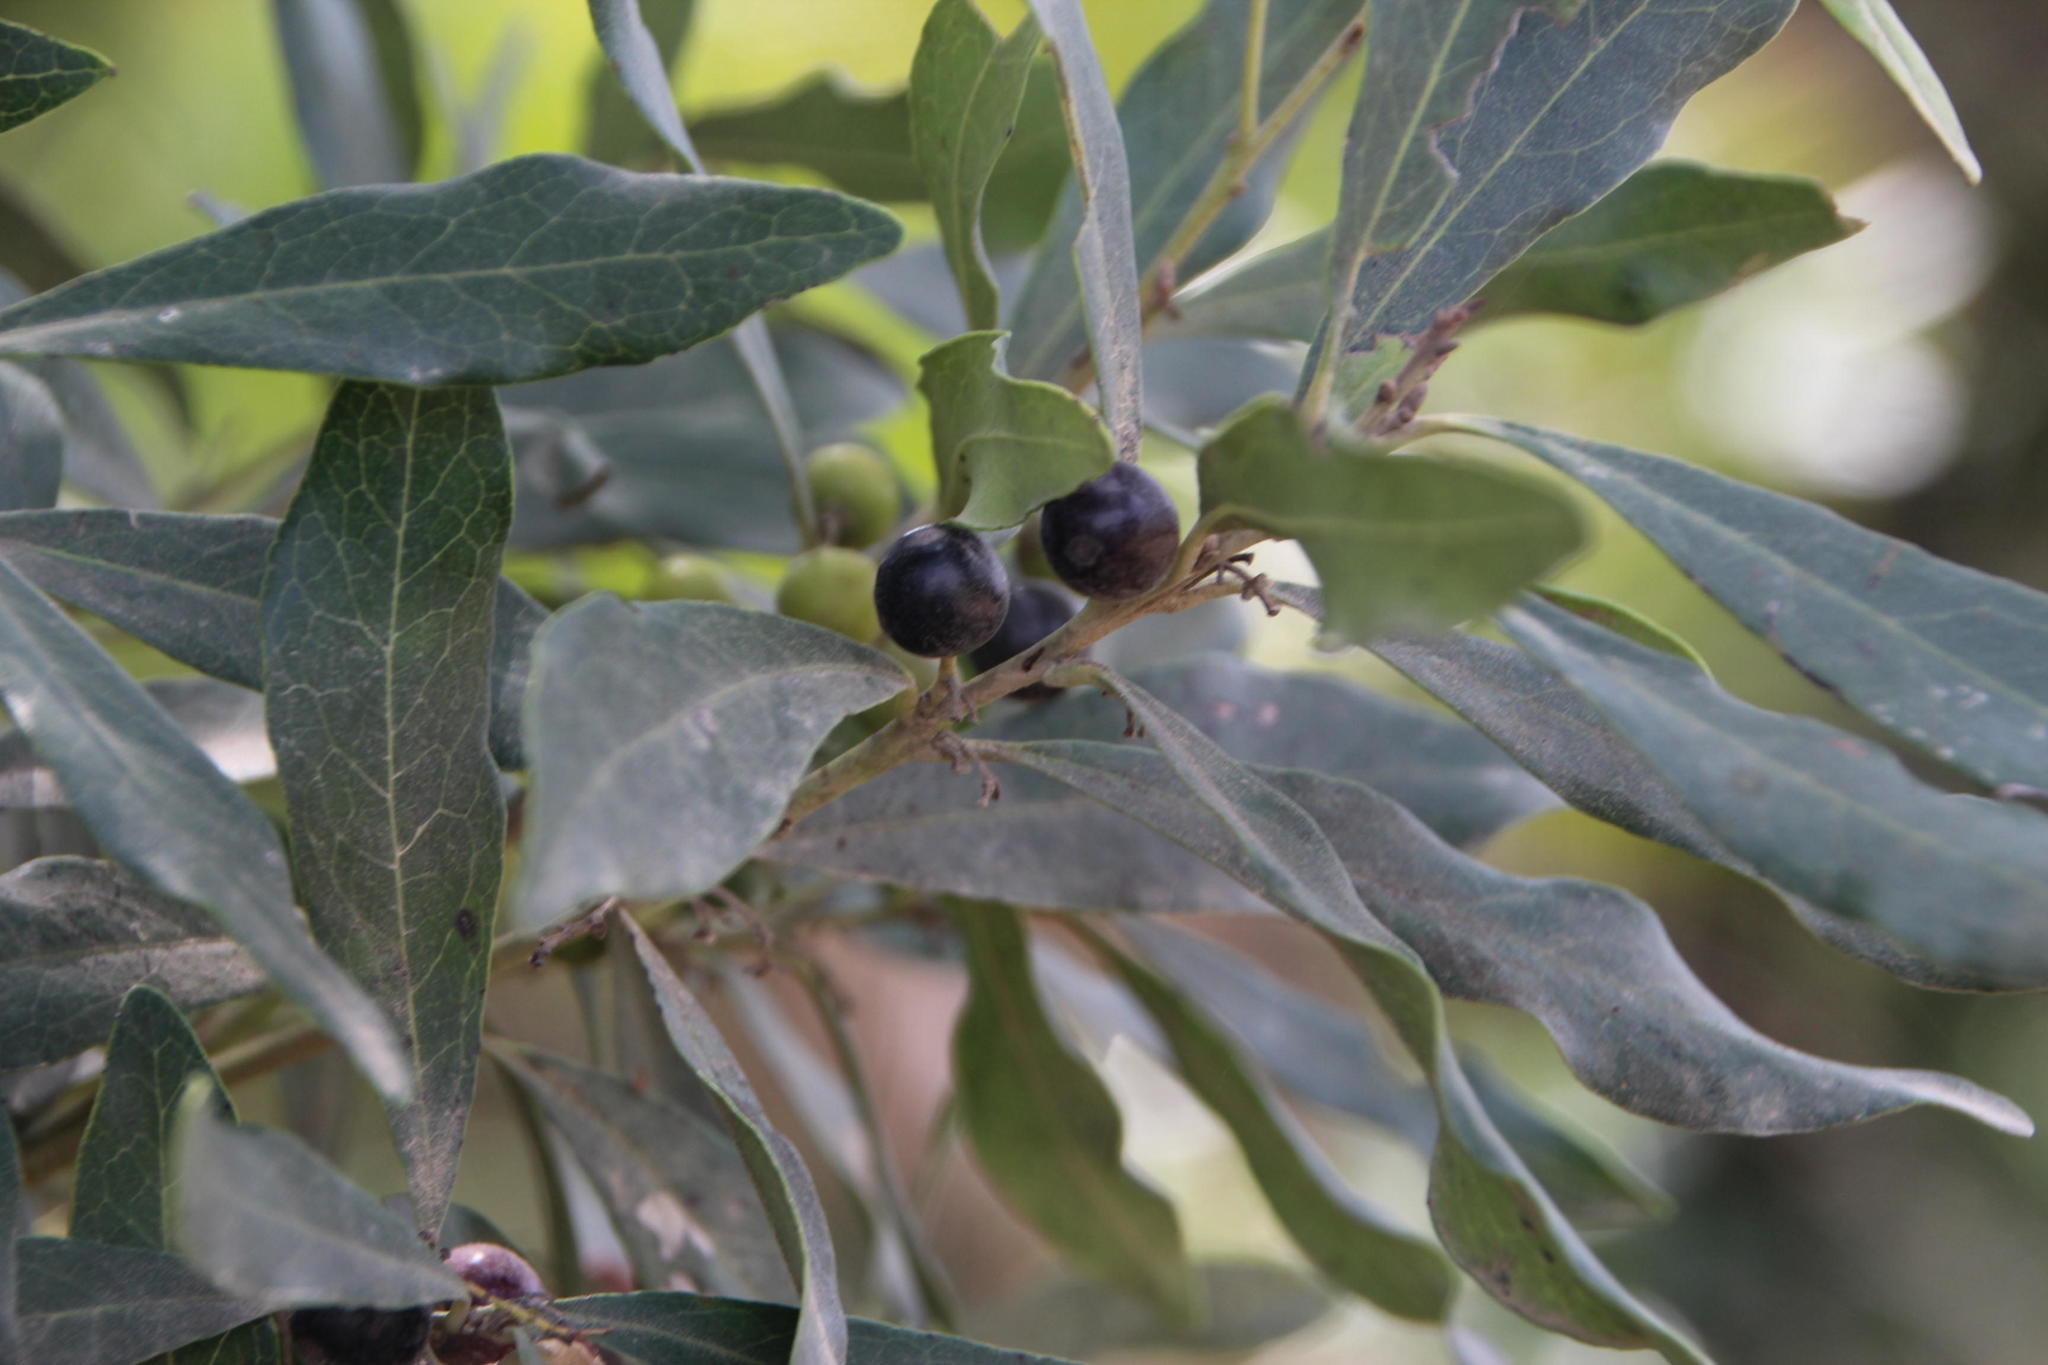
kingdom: Plantae
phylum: Tracheophyta
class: Magnoliopsida
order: Ericales
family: Ebenaceae
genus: Euclea
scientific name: Euclea crispa
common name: Blue guarri
